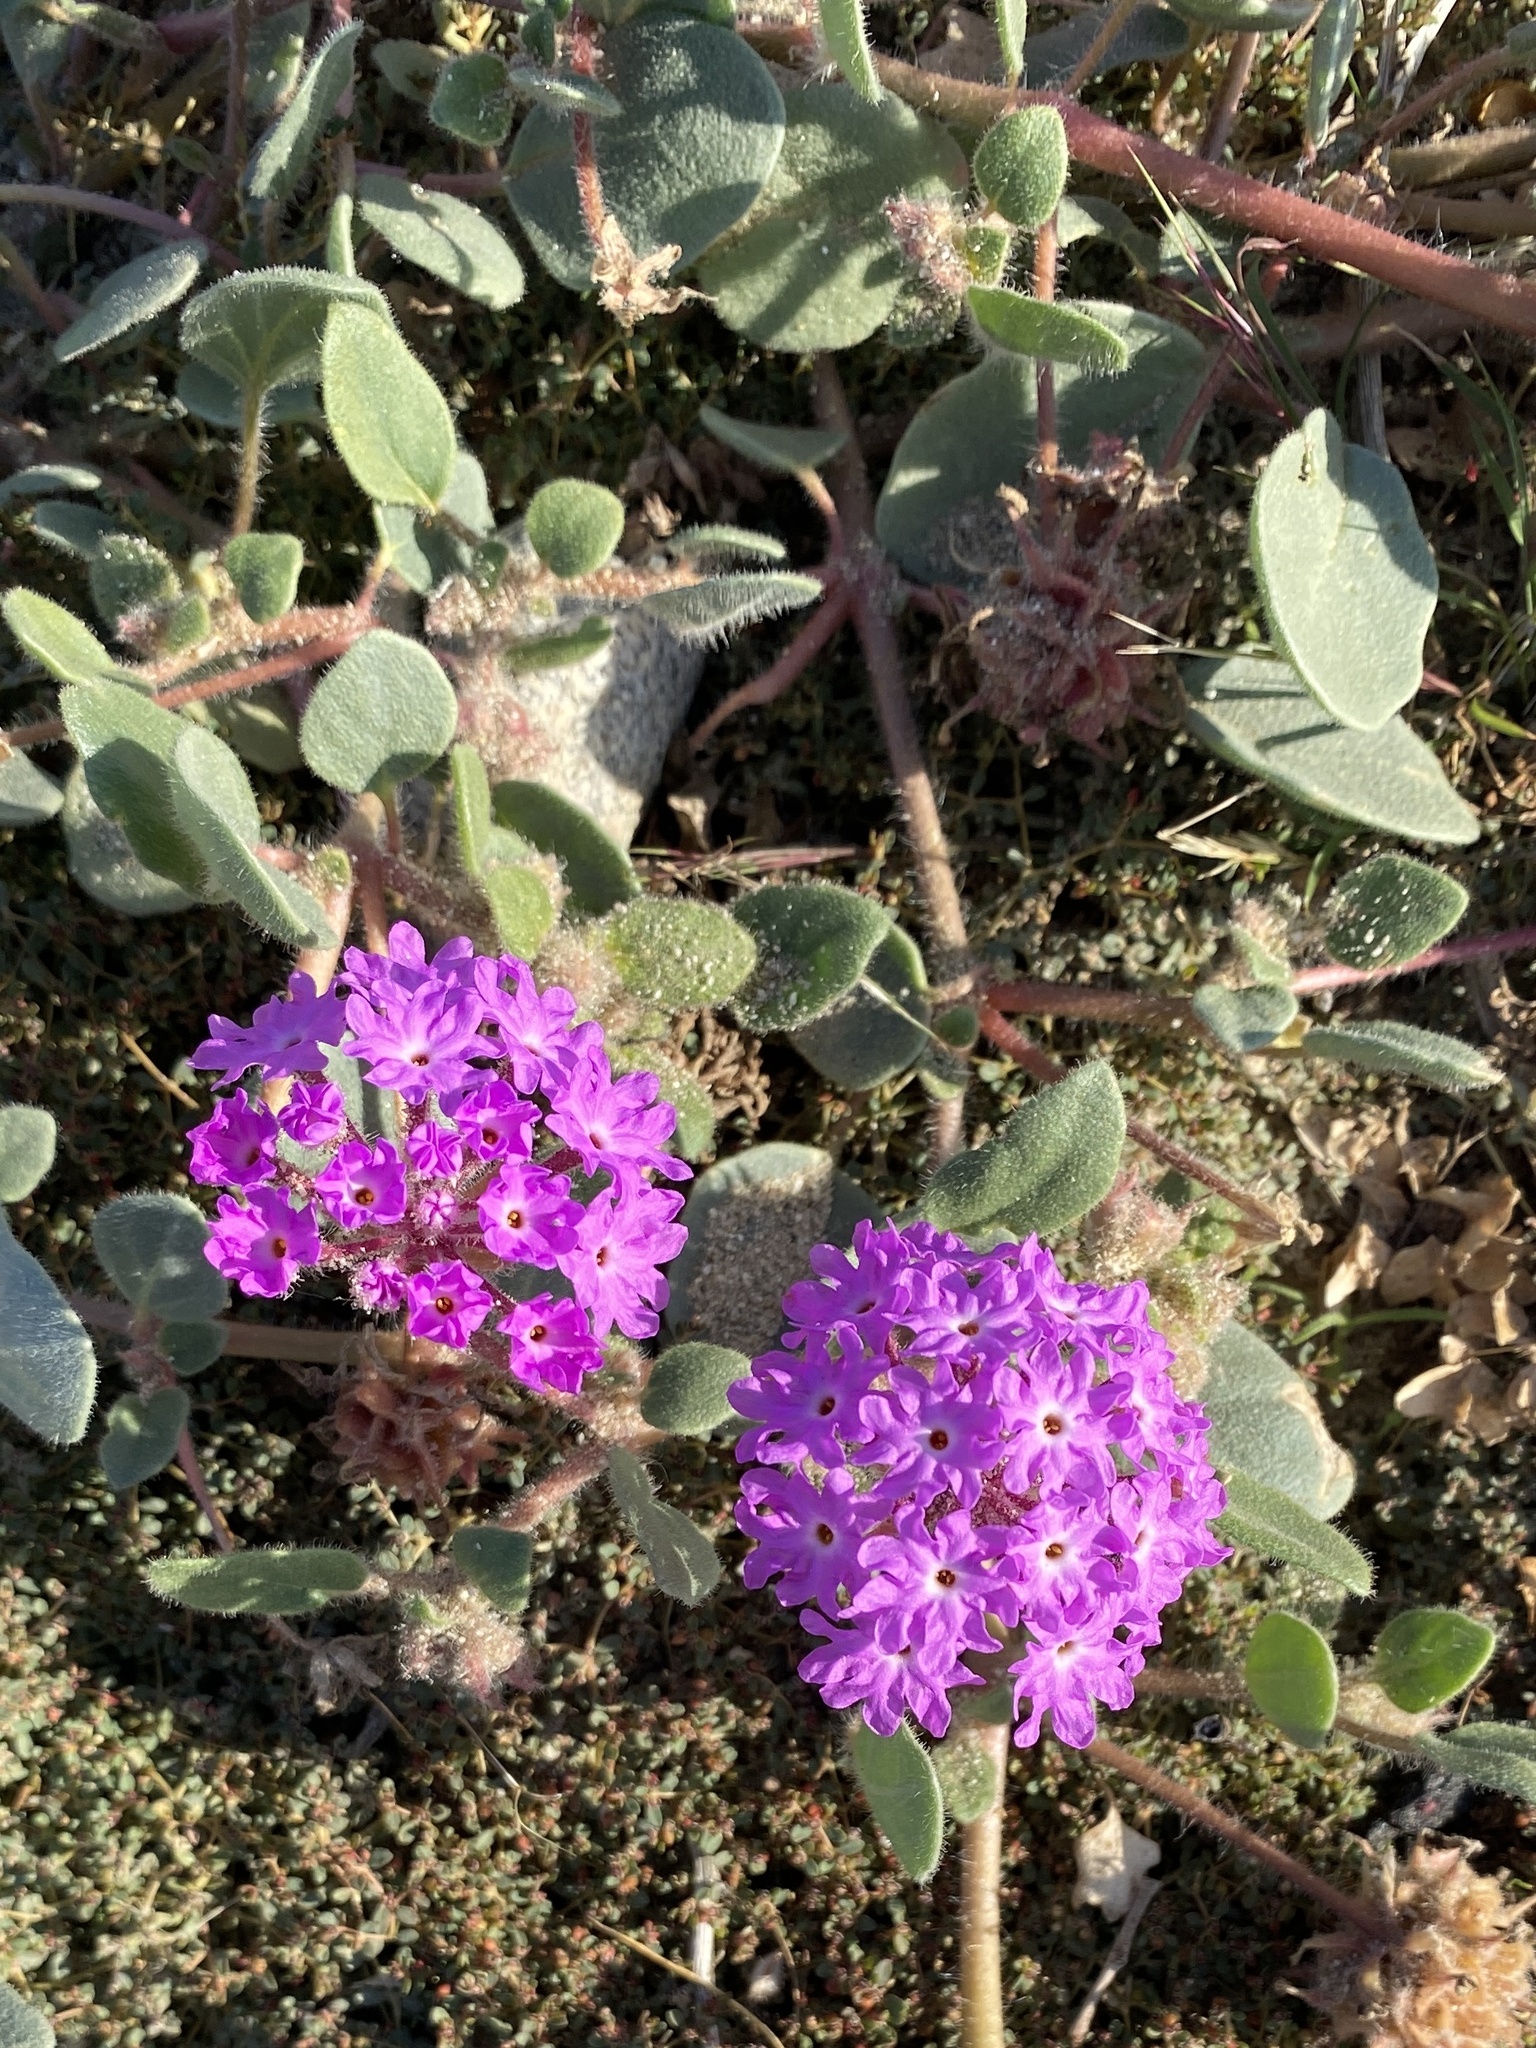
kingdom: Plantae
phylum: Tracheophyta
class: Magnoliopsida
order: Caryophyllales
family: Nyctaginaceae
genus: Abronia
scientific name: Abronia villosa
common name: Desert sand-verbena
